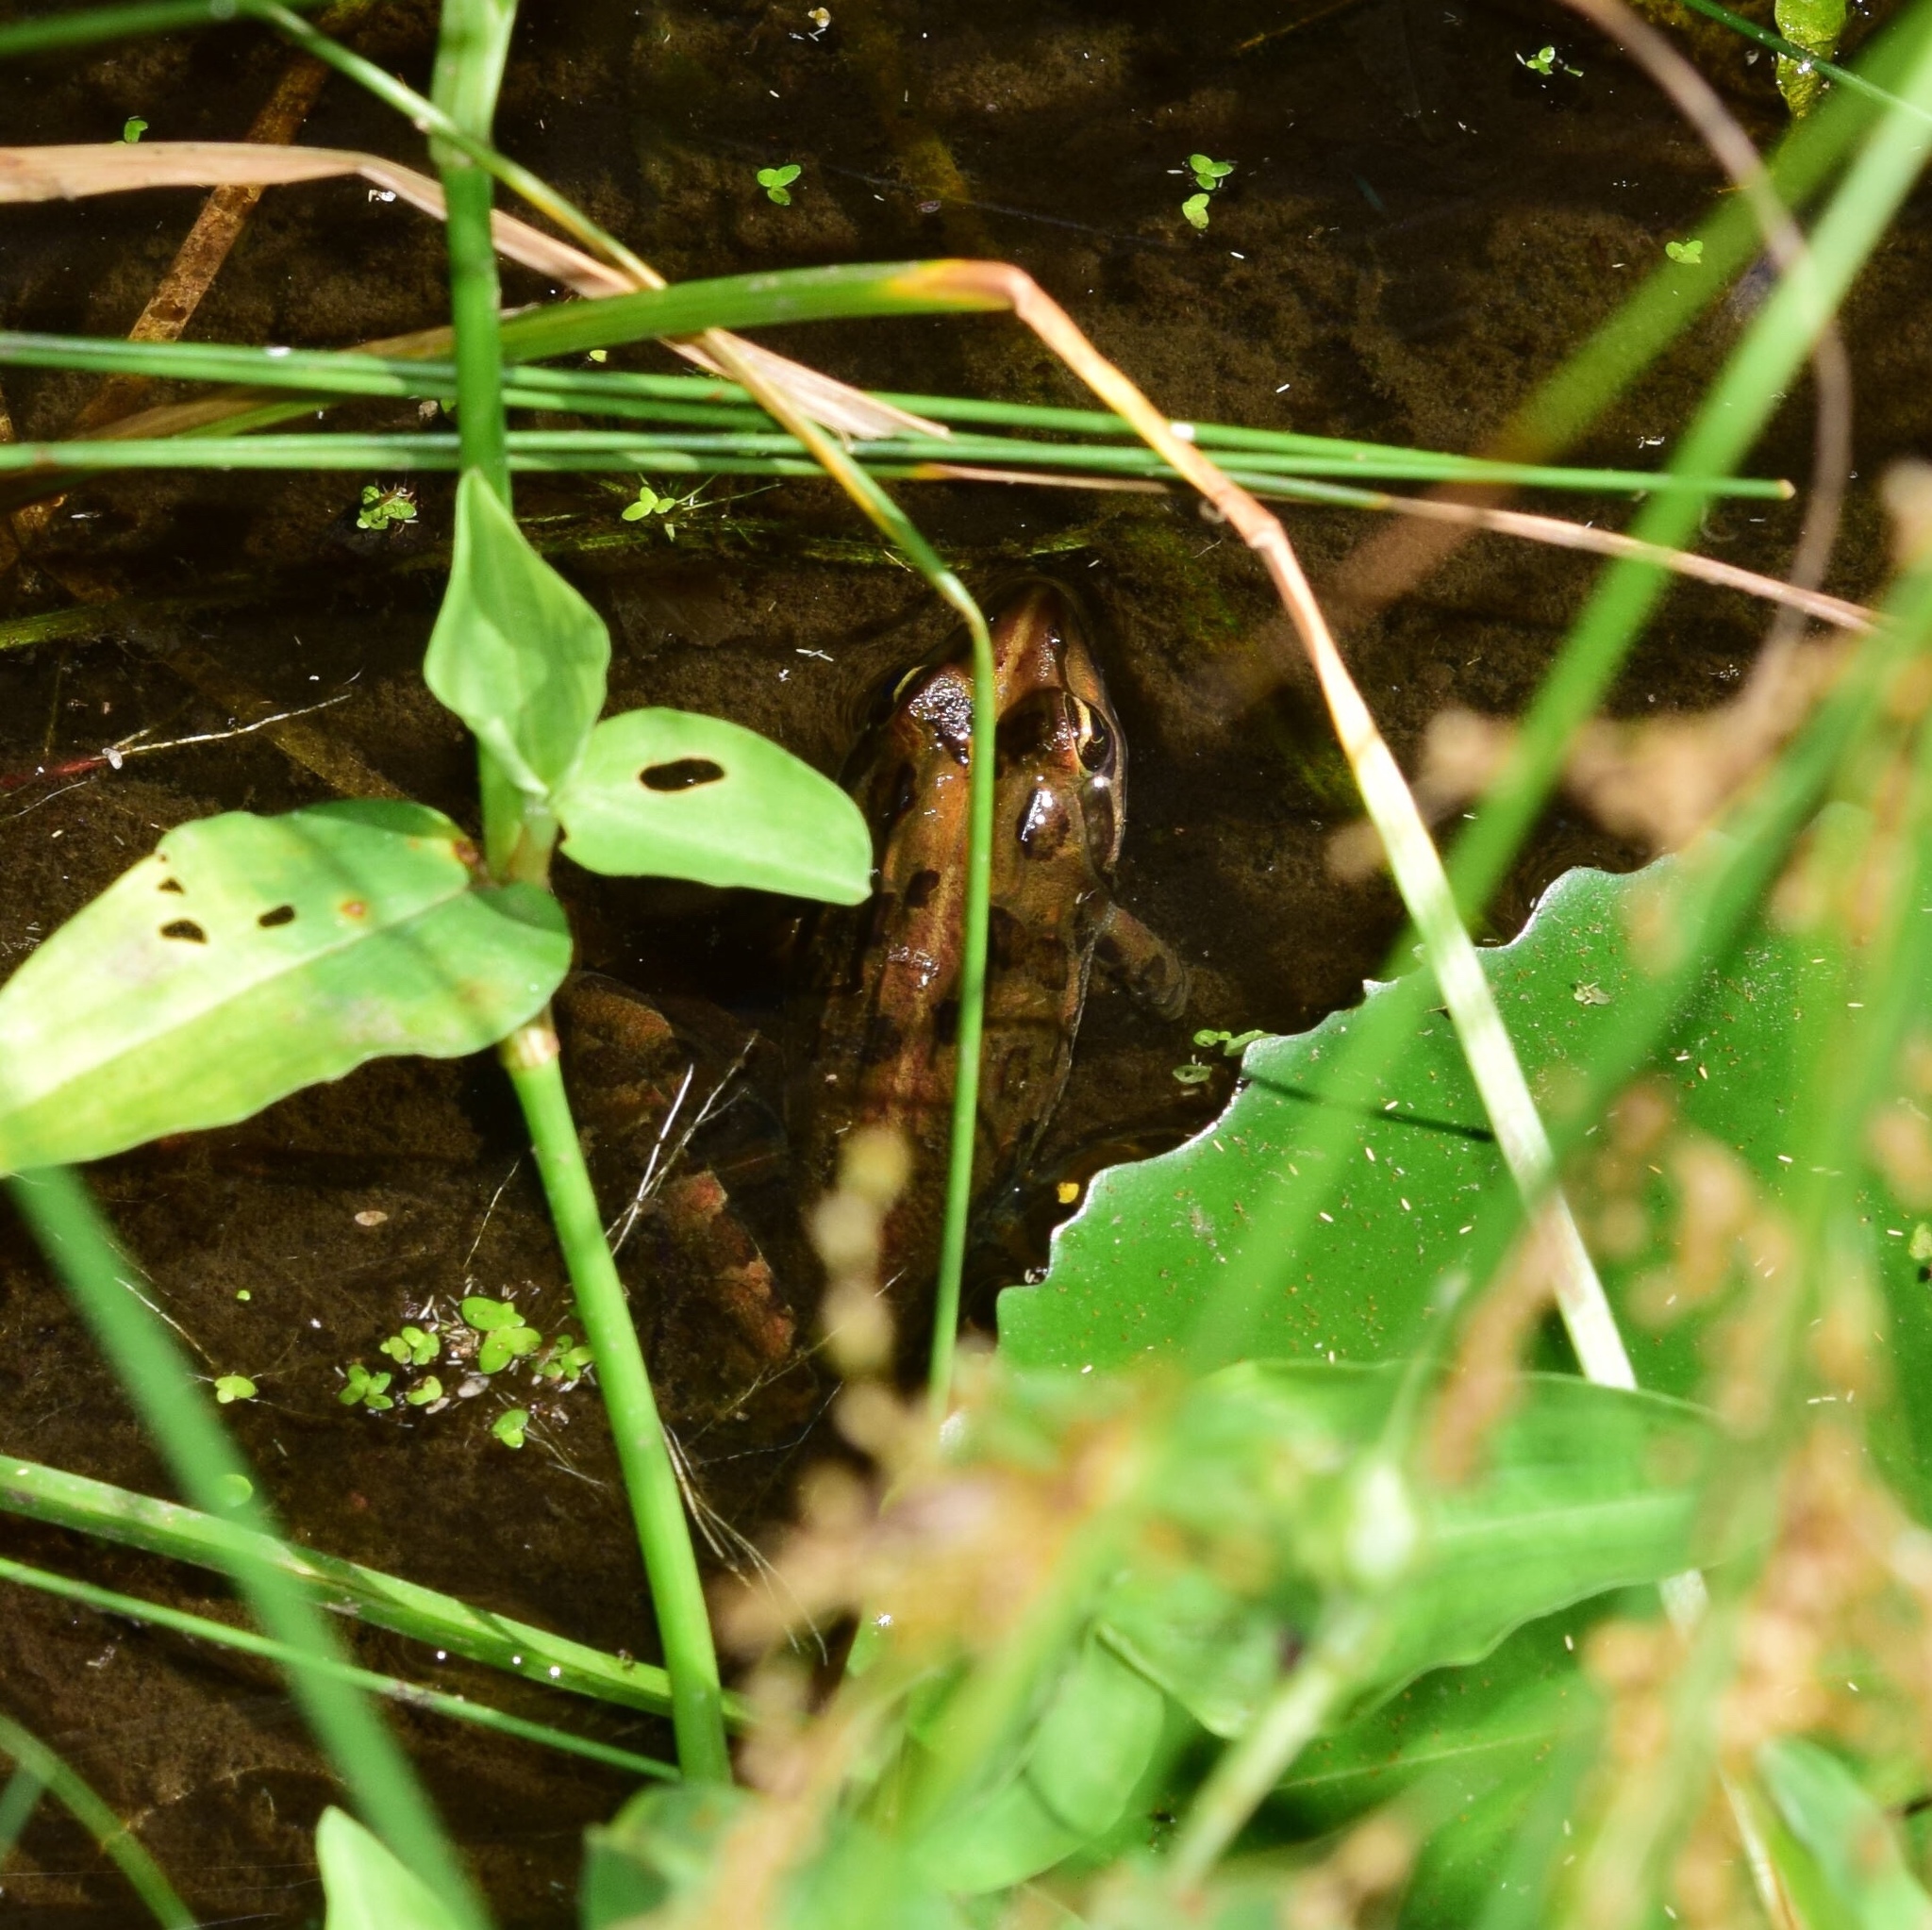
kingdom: Animalia
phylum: Chordata
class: Amphibia
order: Anura
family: Pyxicephalidae
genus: Amietia
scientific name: Amietia delalandii
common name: Delalande's river frog
